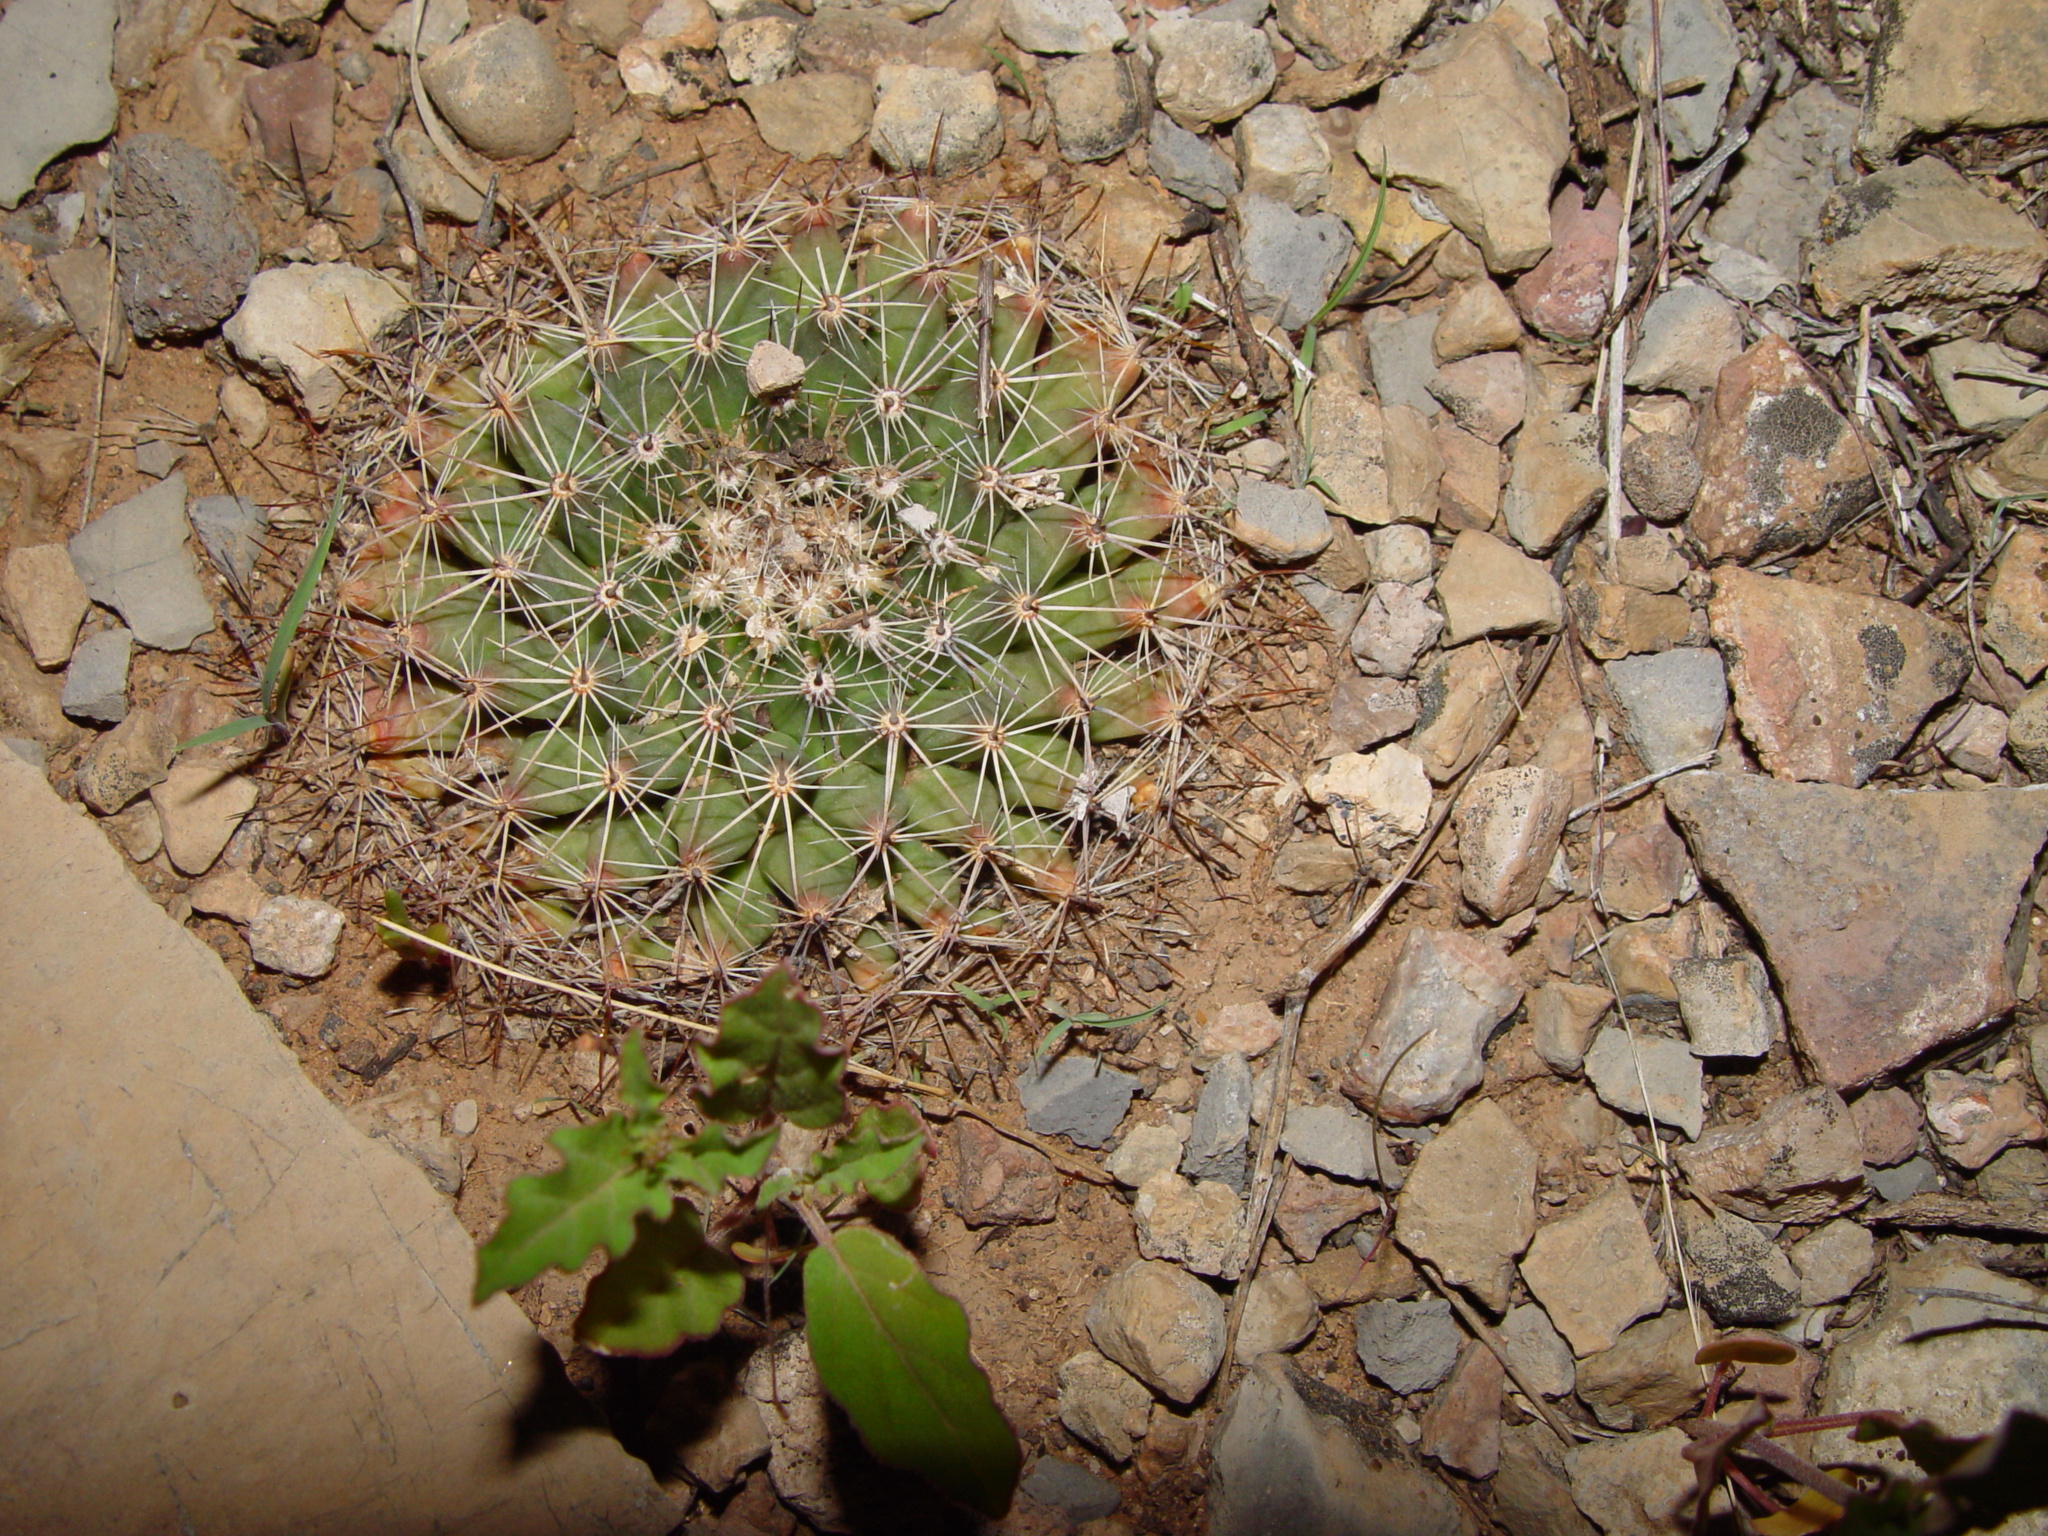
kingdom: Plantae
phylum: Tracheophyta
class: Magnoliopsida
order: Caryophyllales
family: Cactaceae
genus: Mammillaria
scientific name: Mammillaria heyderi
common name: Little nipple cactus
